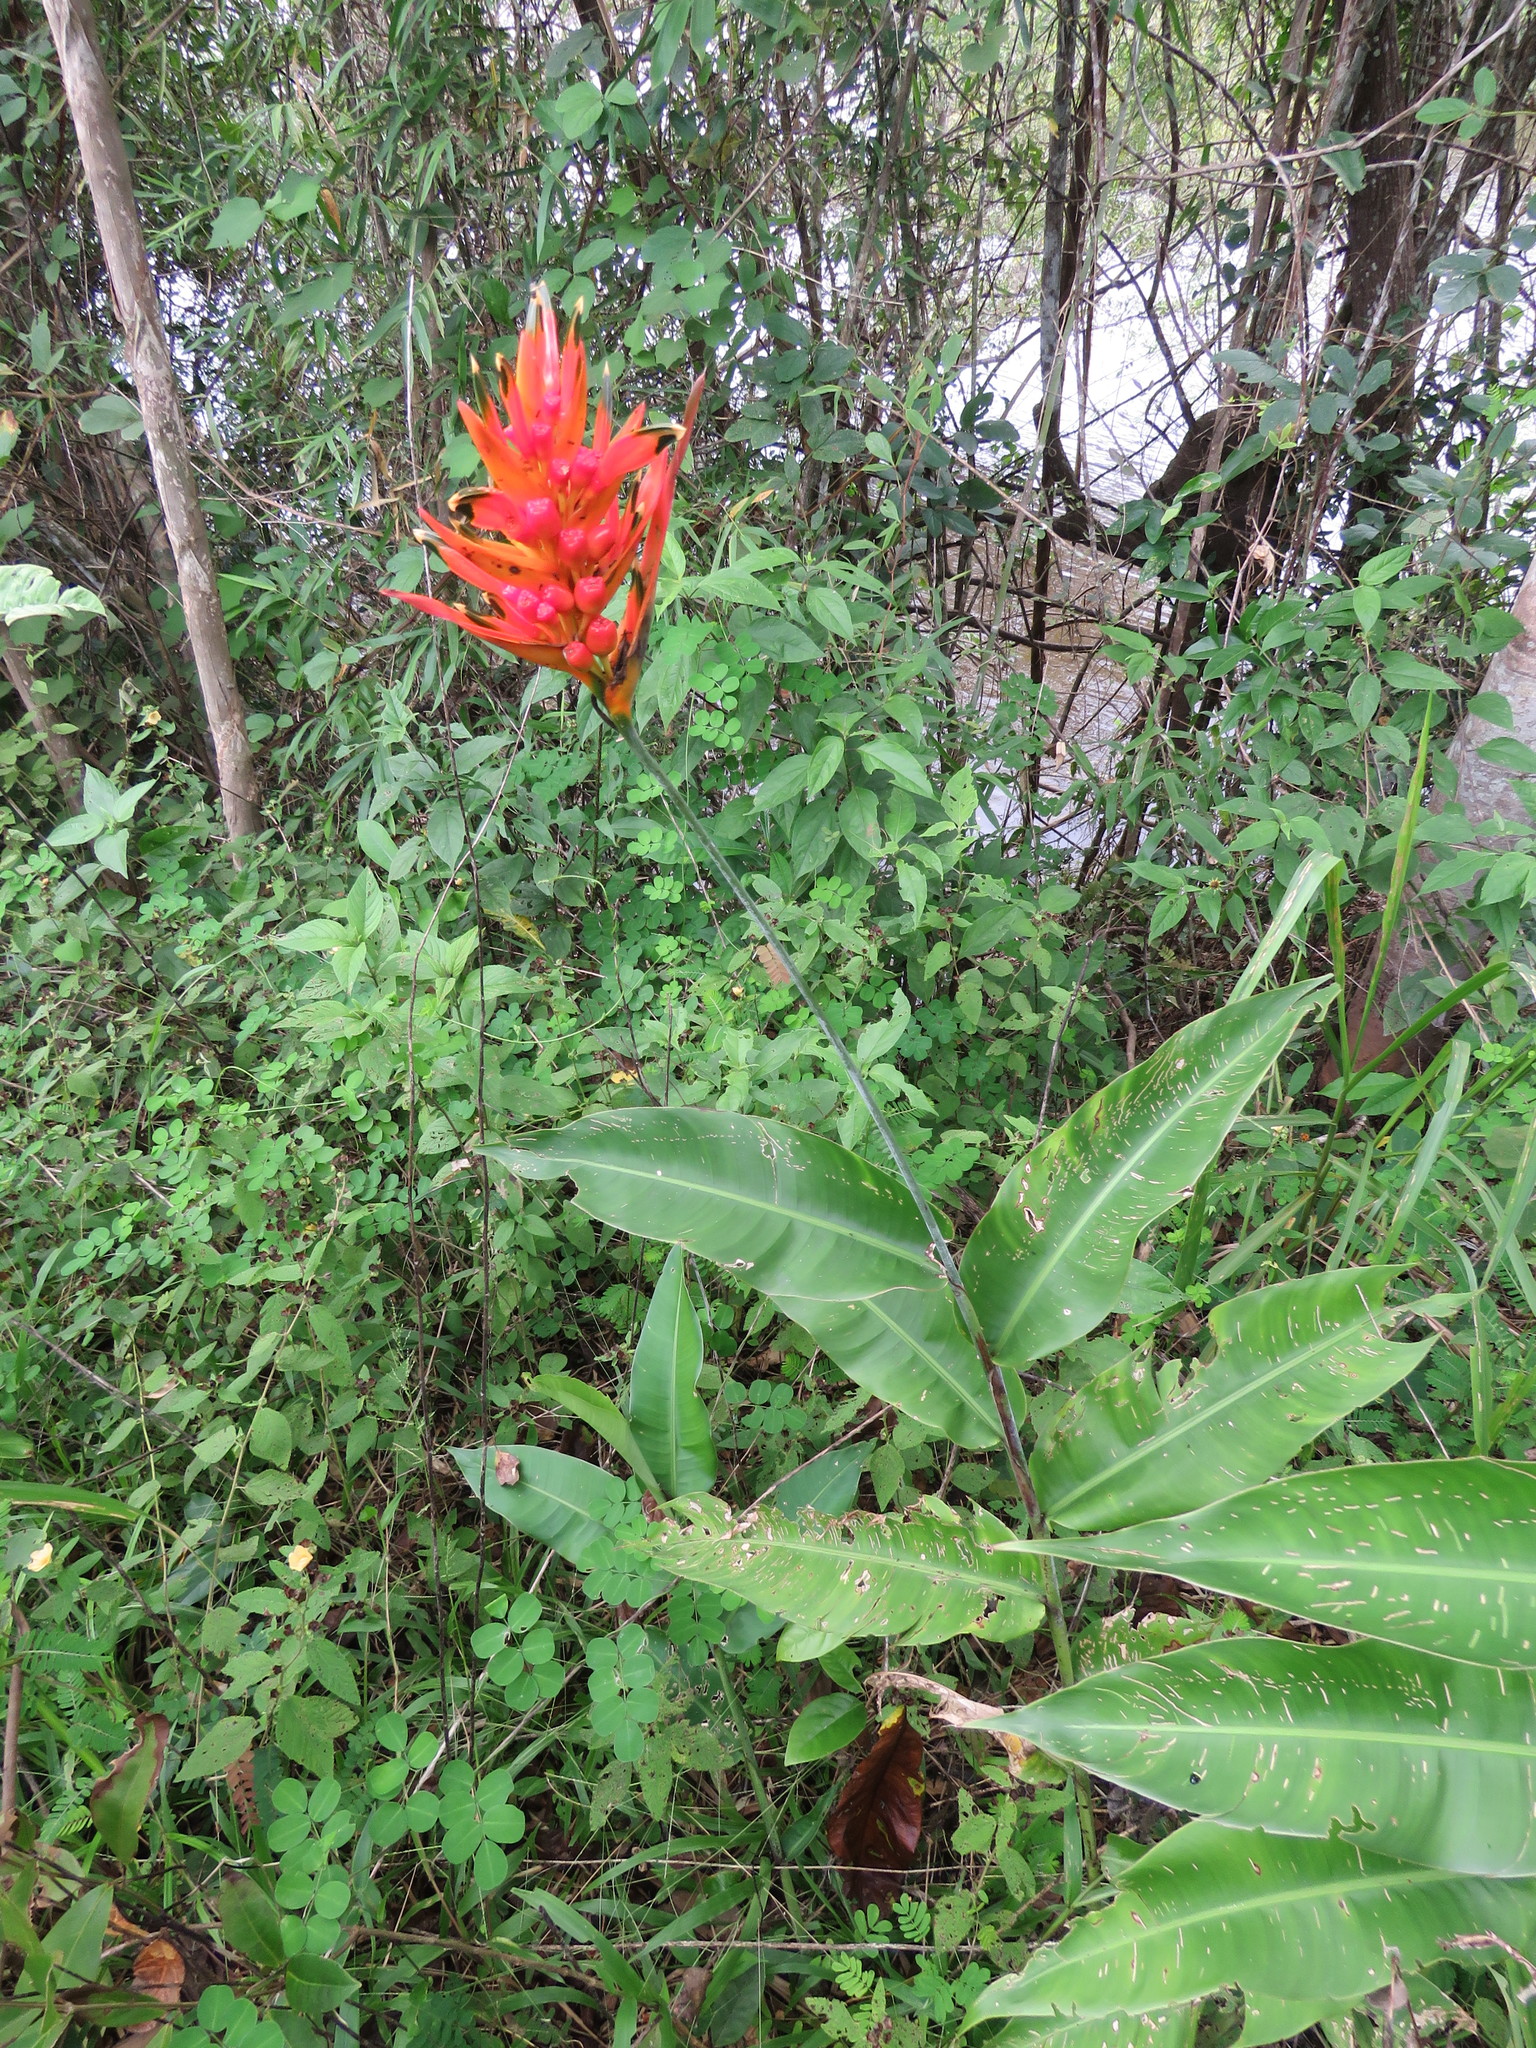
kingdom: Plantae
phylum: Tracheophyta
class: Liliopsida
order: Zingiberales
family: Heliconiaceae
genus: Heliconia
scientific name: Heliconia psittacorum
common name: Parrot's-flower
